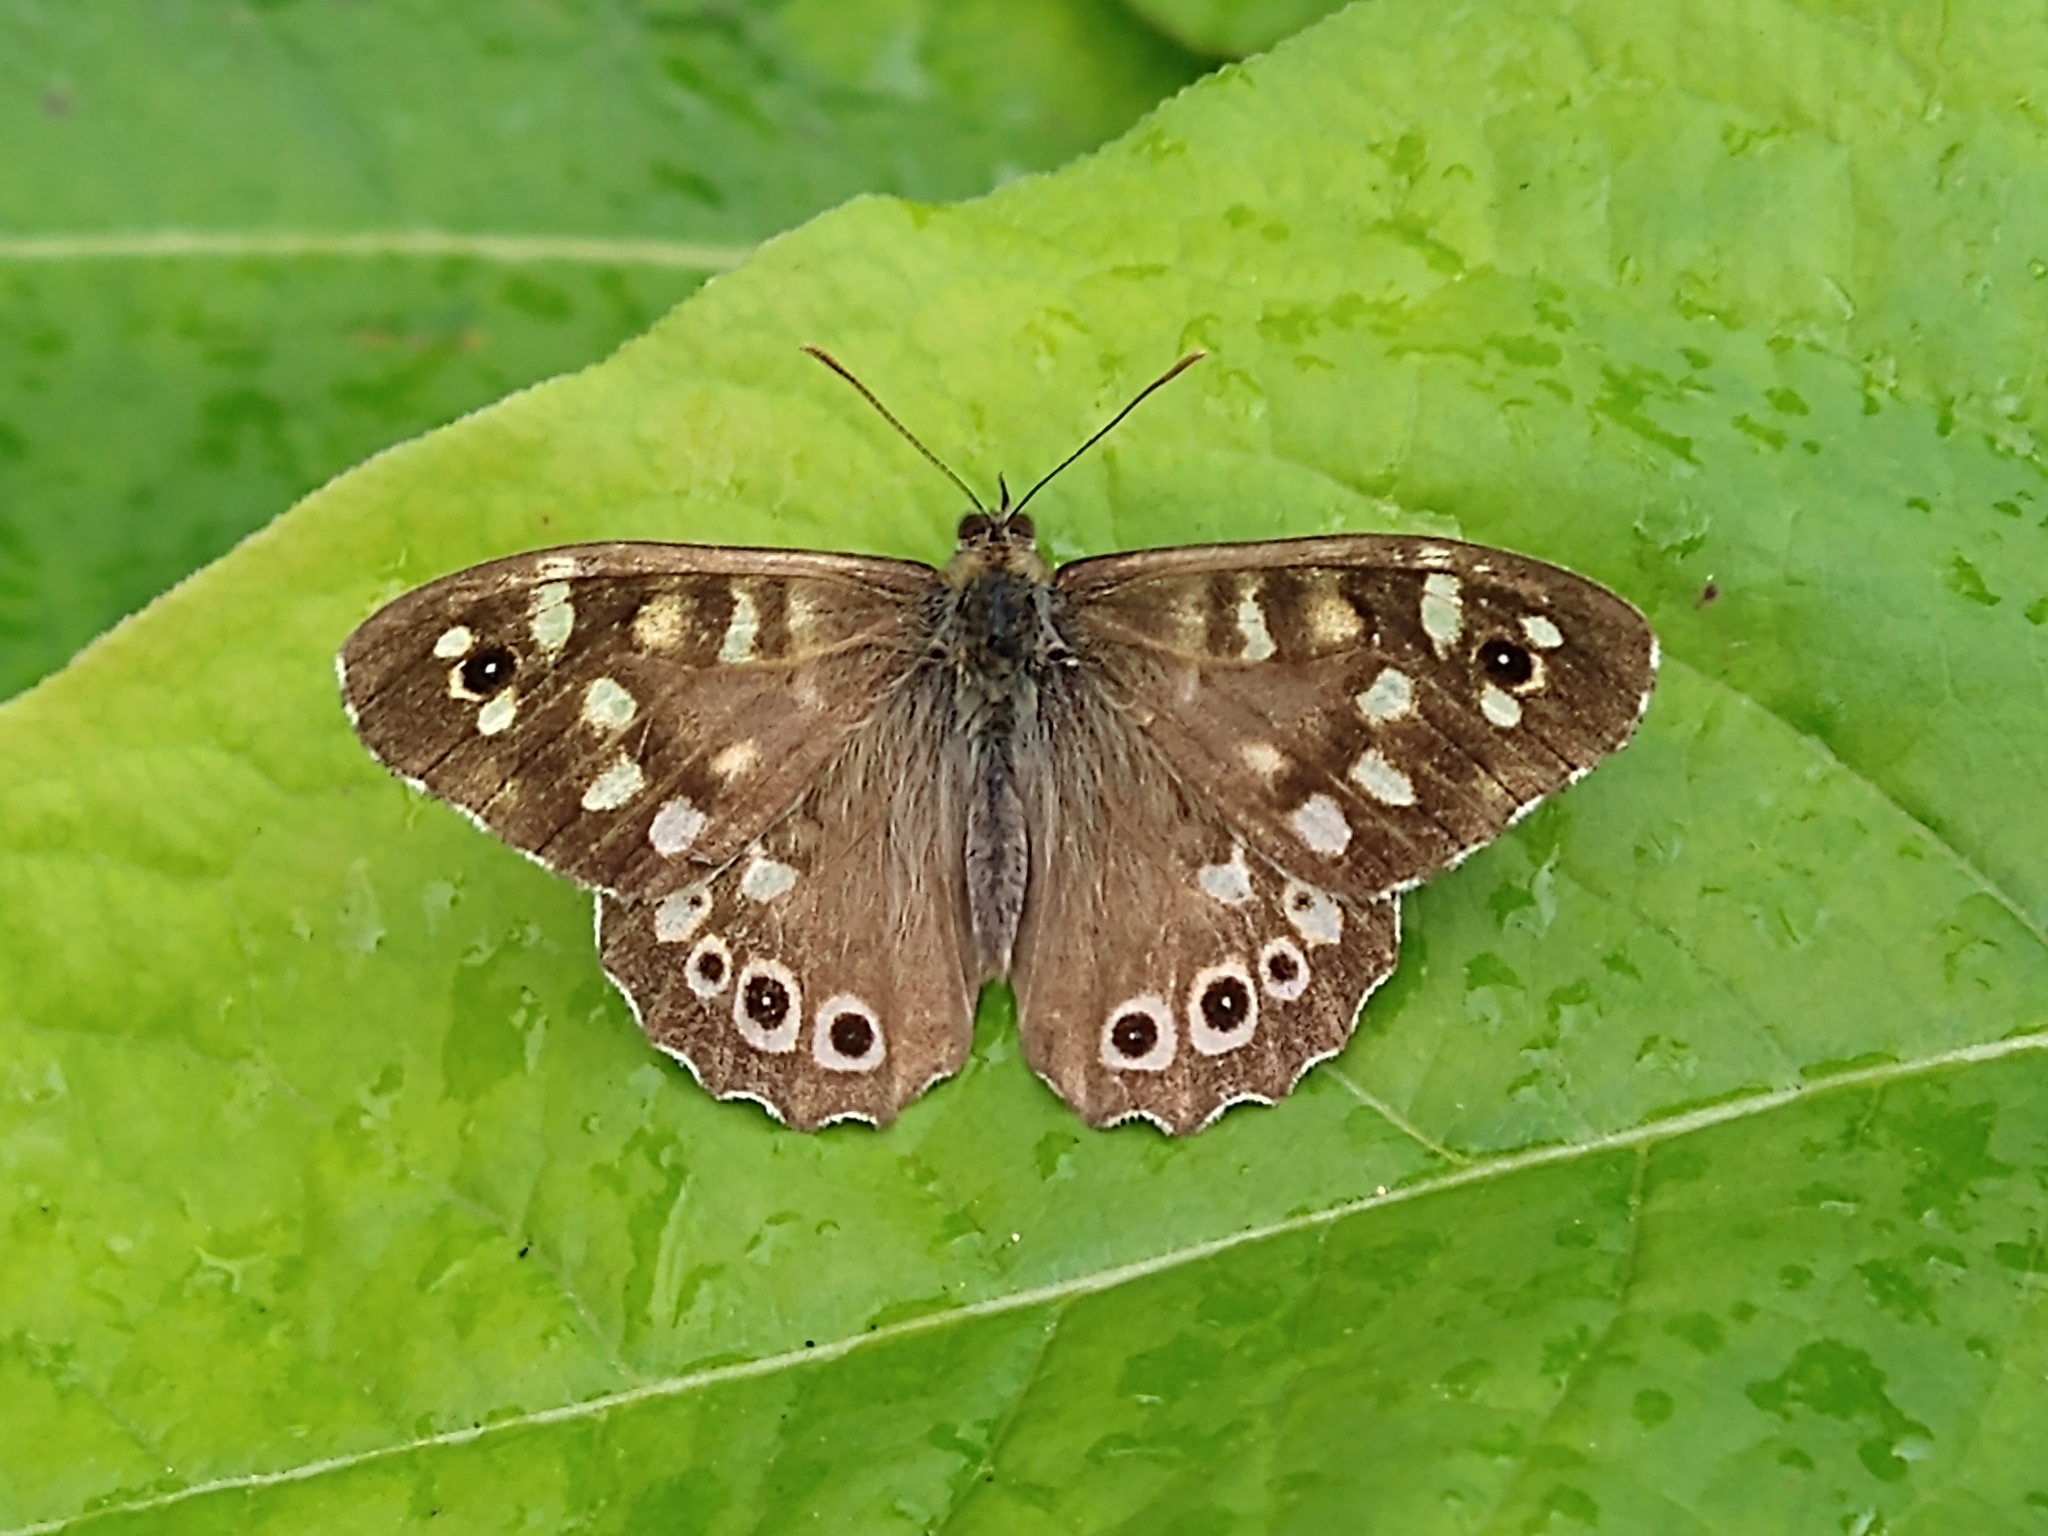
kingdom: Animalia
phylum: Arthropoda
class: Insecta
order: Lepidoptera
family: Nymphalidae
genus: Pararge
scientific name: Pararge aegeria
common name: Speckled wood
